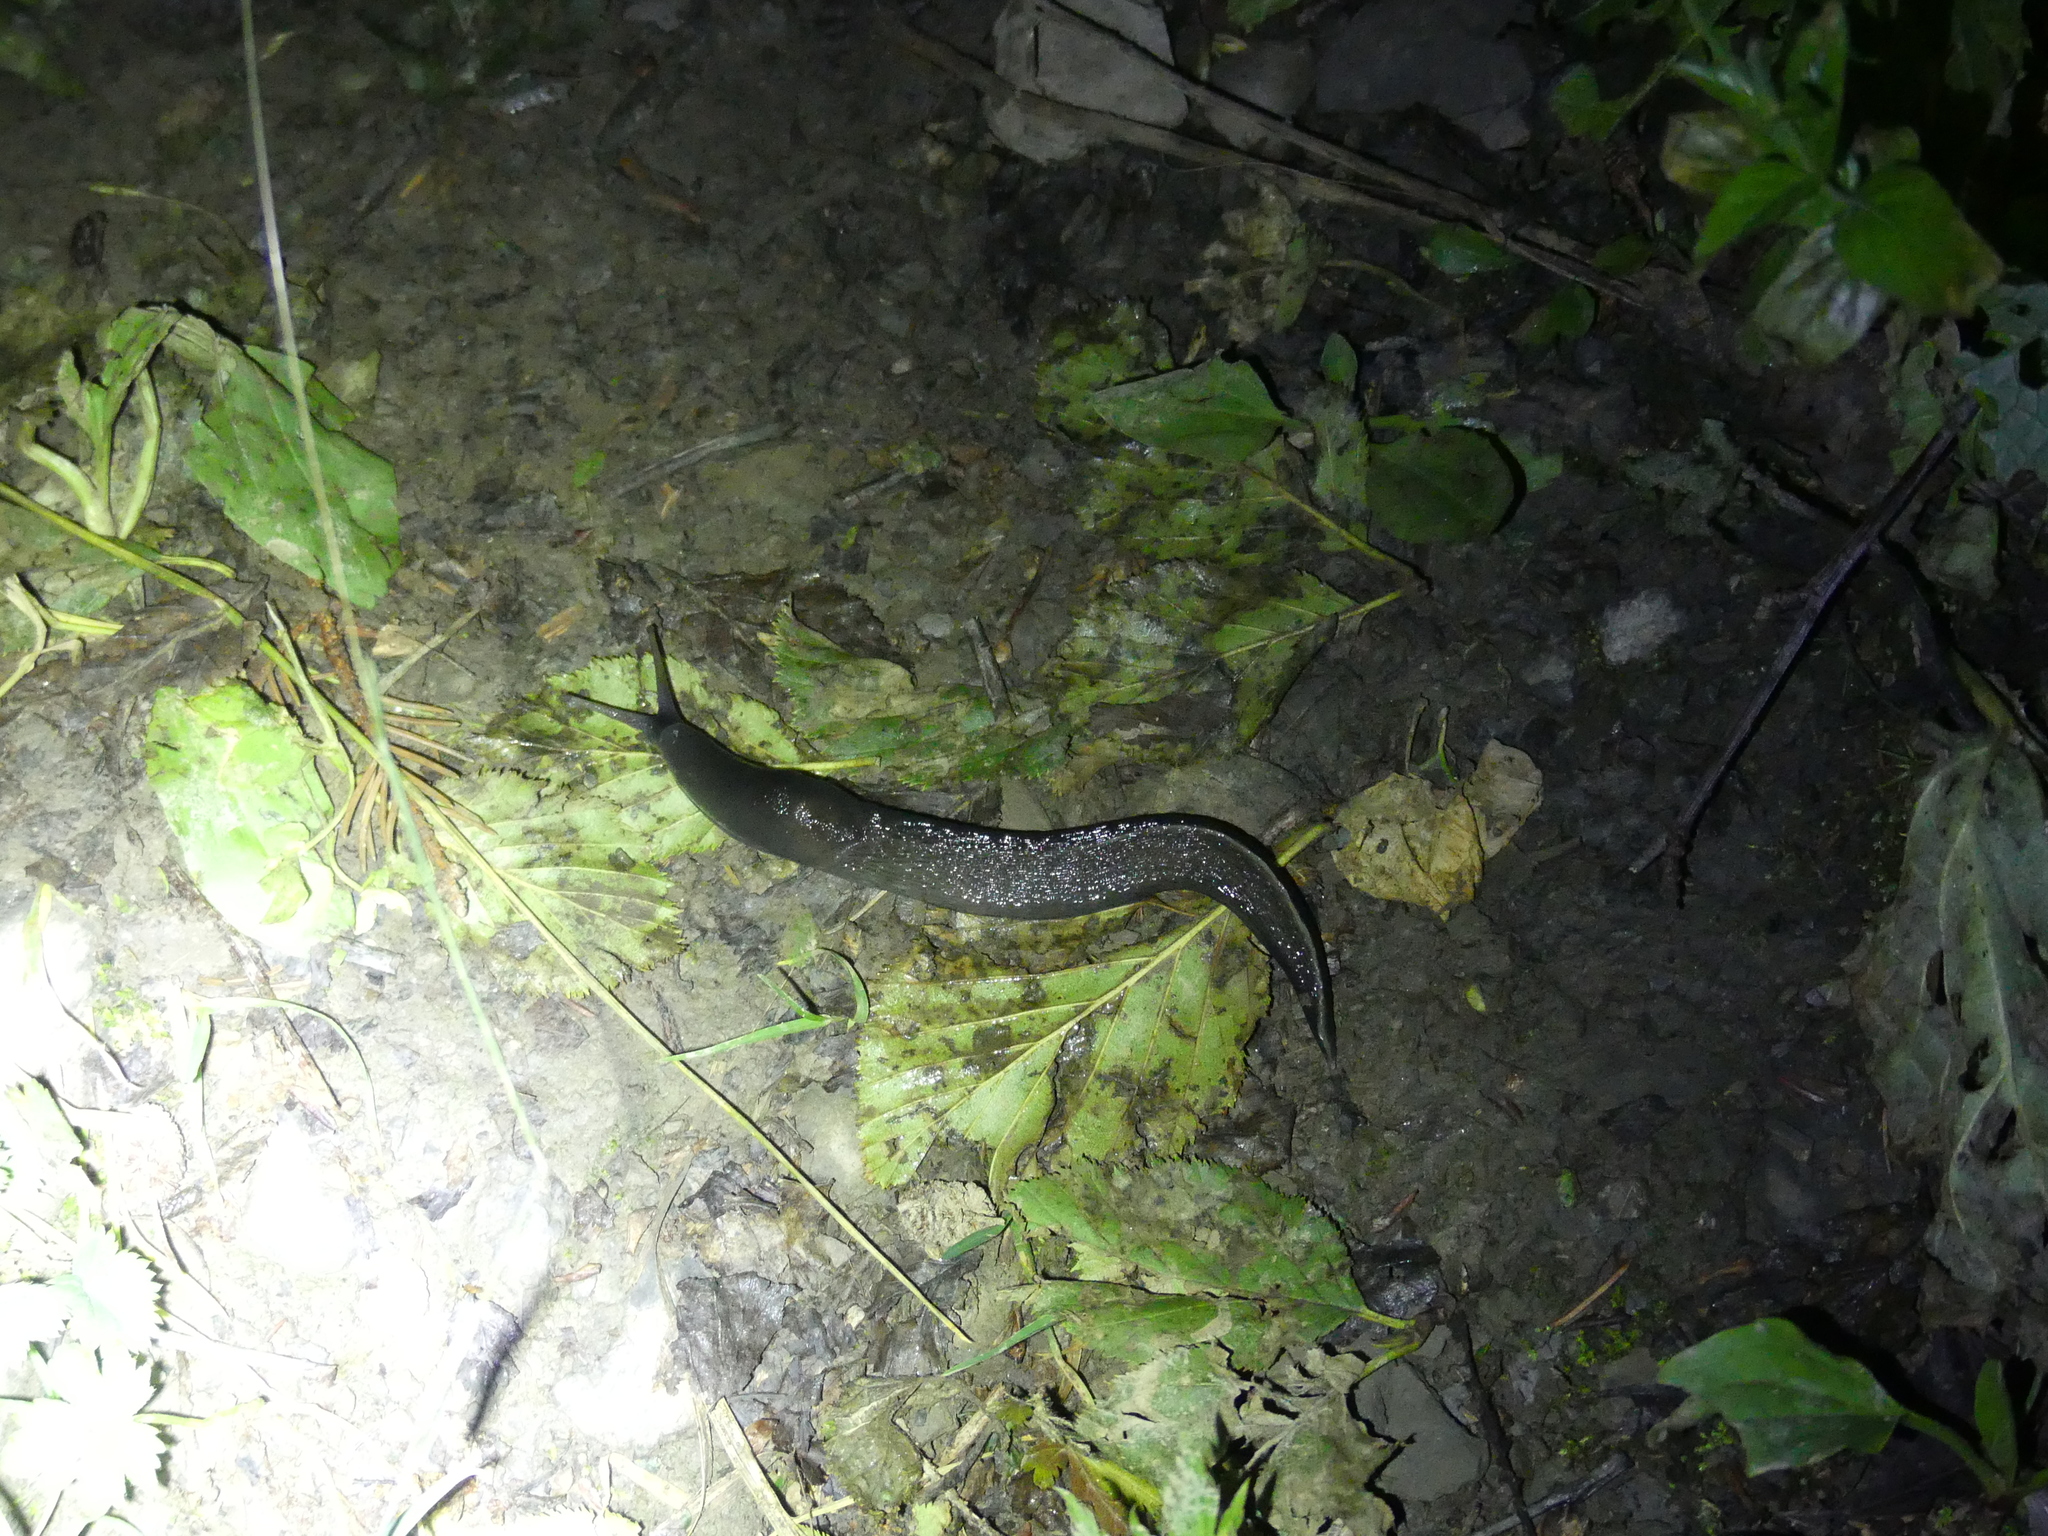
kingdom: Animalia
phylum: Mollusca
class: Gastropoda
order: Stylommatophora
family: Limacidae
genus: Limax
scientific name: Limax cinereoniger
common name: Ash-black slug
